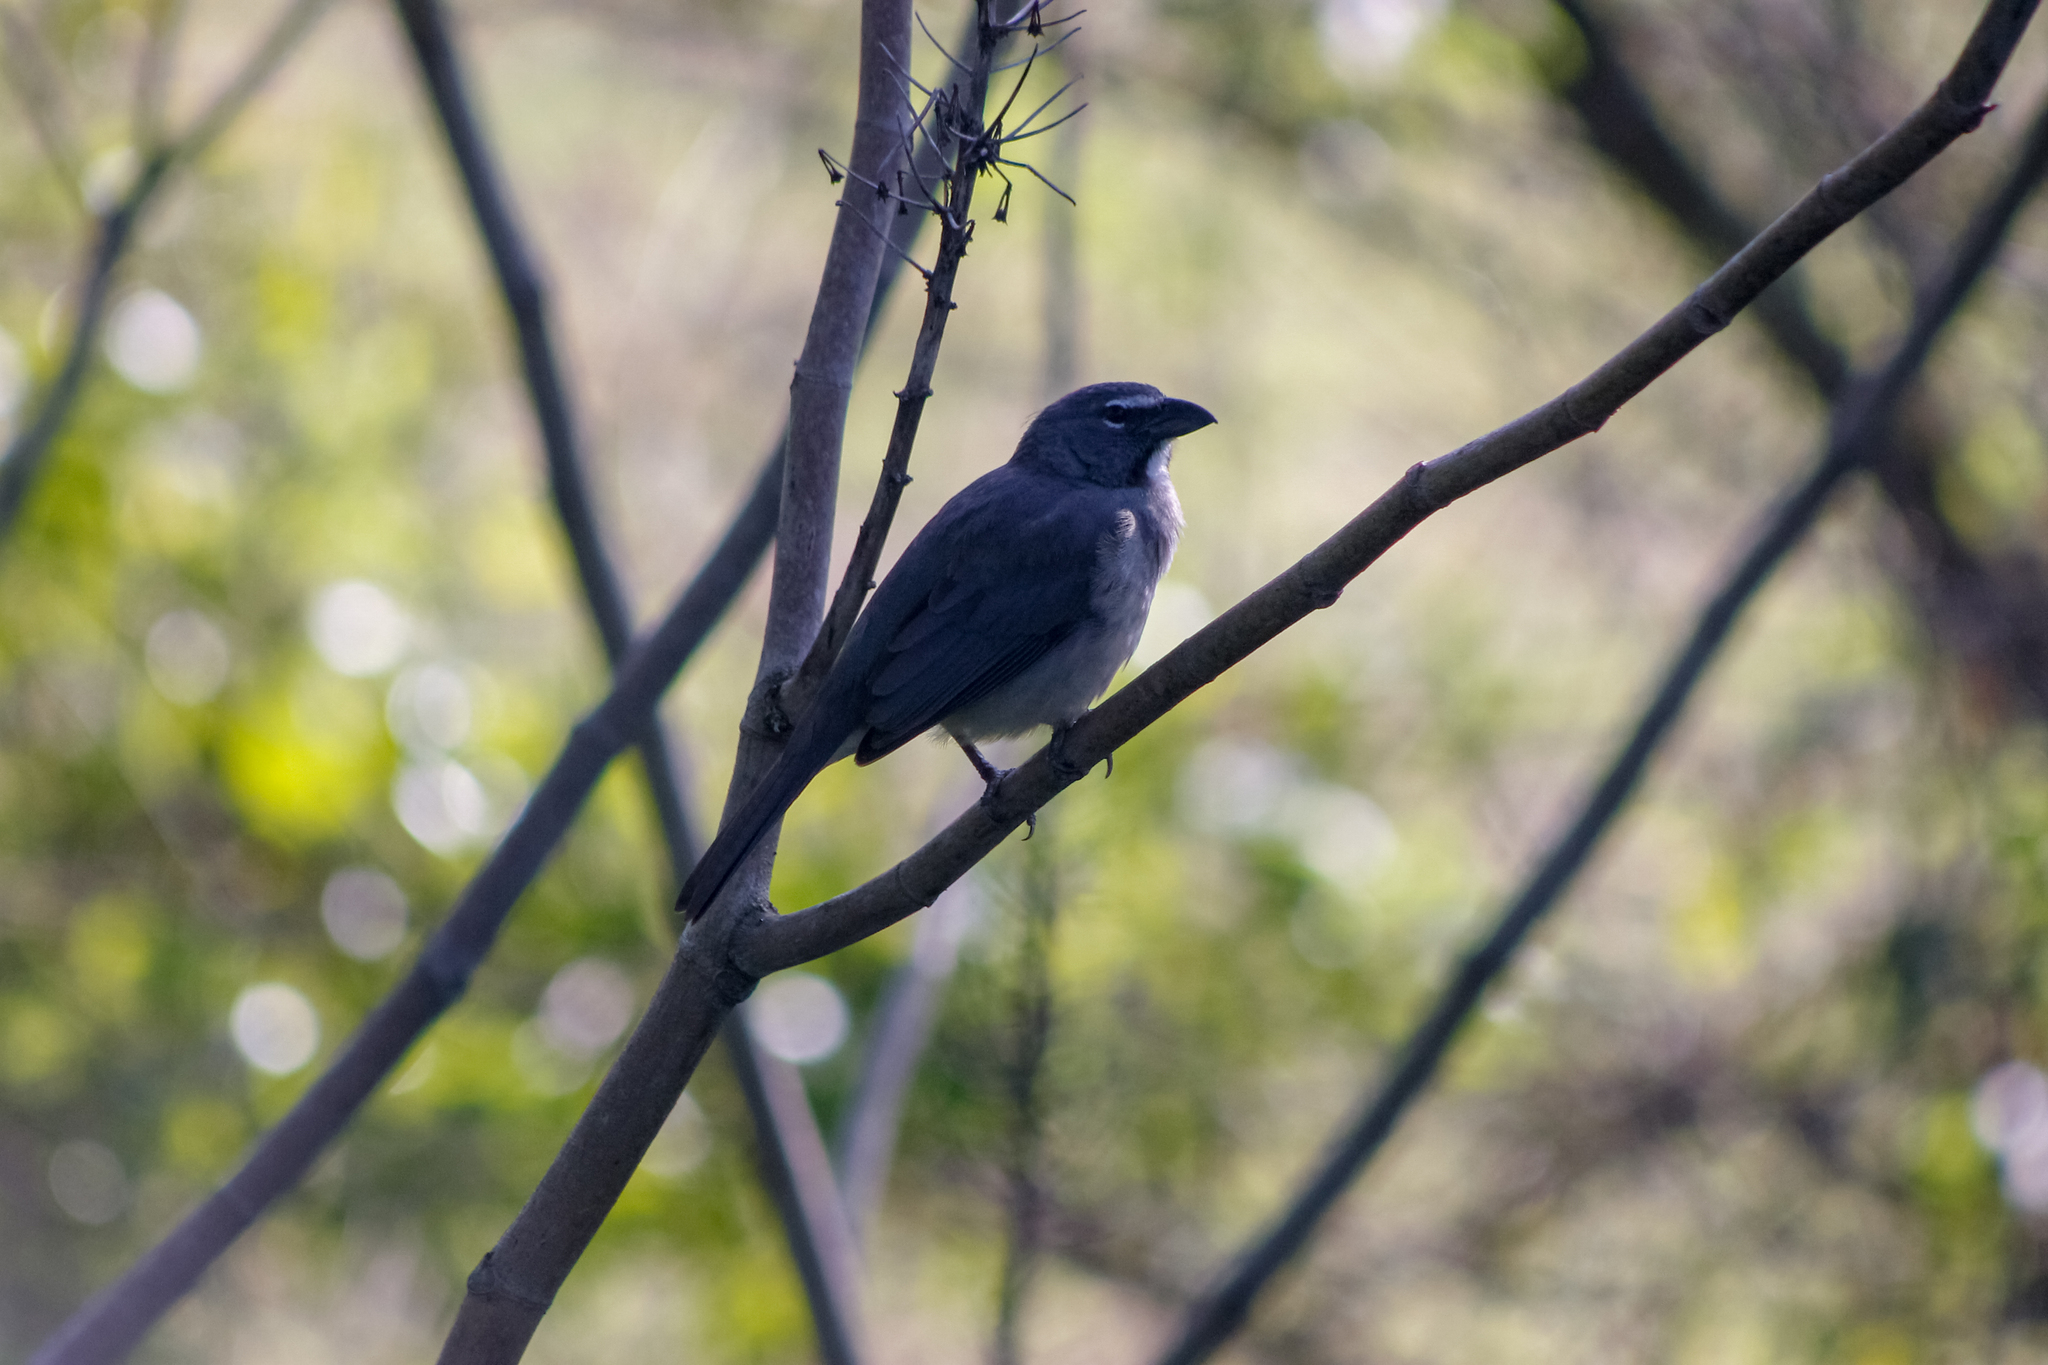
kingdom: Animalia
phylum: Chordata
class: Aves
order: Passeriformes
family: Thraupidae
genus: Saltator
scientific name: Saltator olivascens
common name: Caribbean grey saltator
